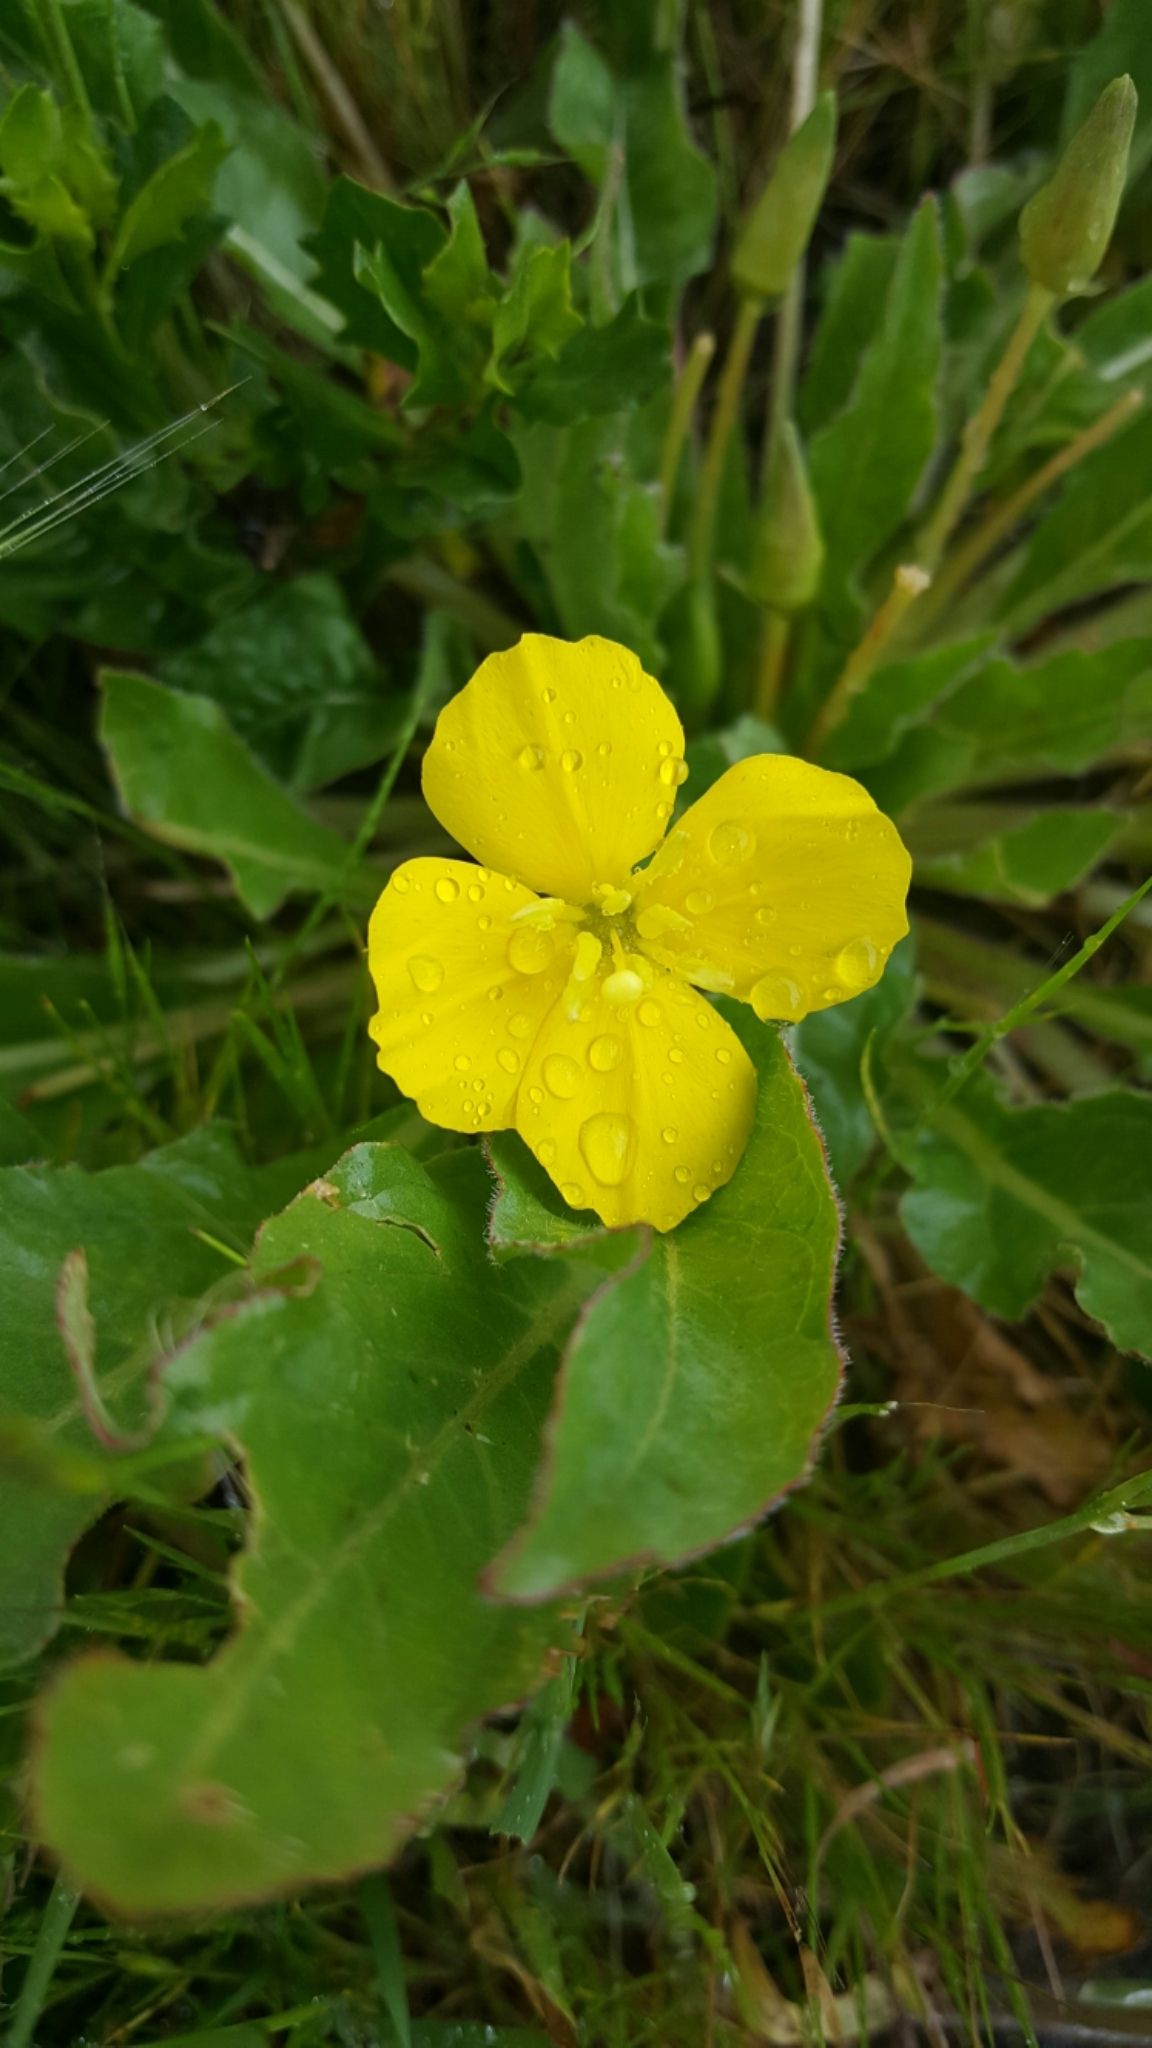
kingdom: Plantae
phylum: Tracheophyta
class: Magnoliopsida
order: Myrtales
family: Onagraceae
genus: Taraxia
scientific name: Taraxia ovata
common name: Goldeneggs
